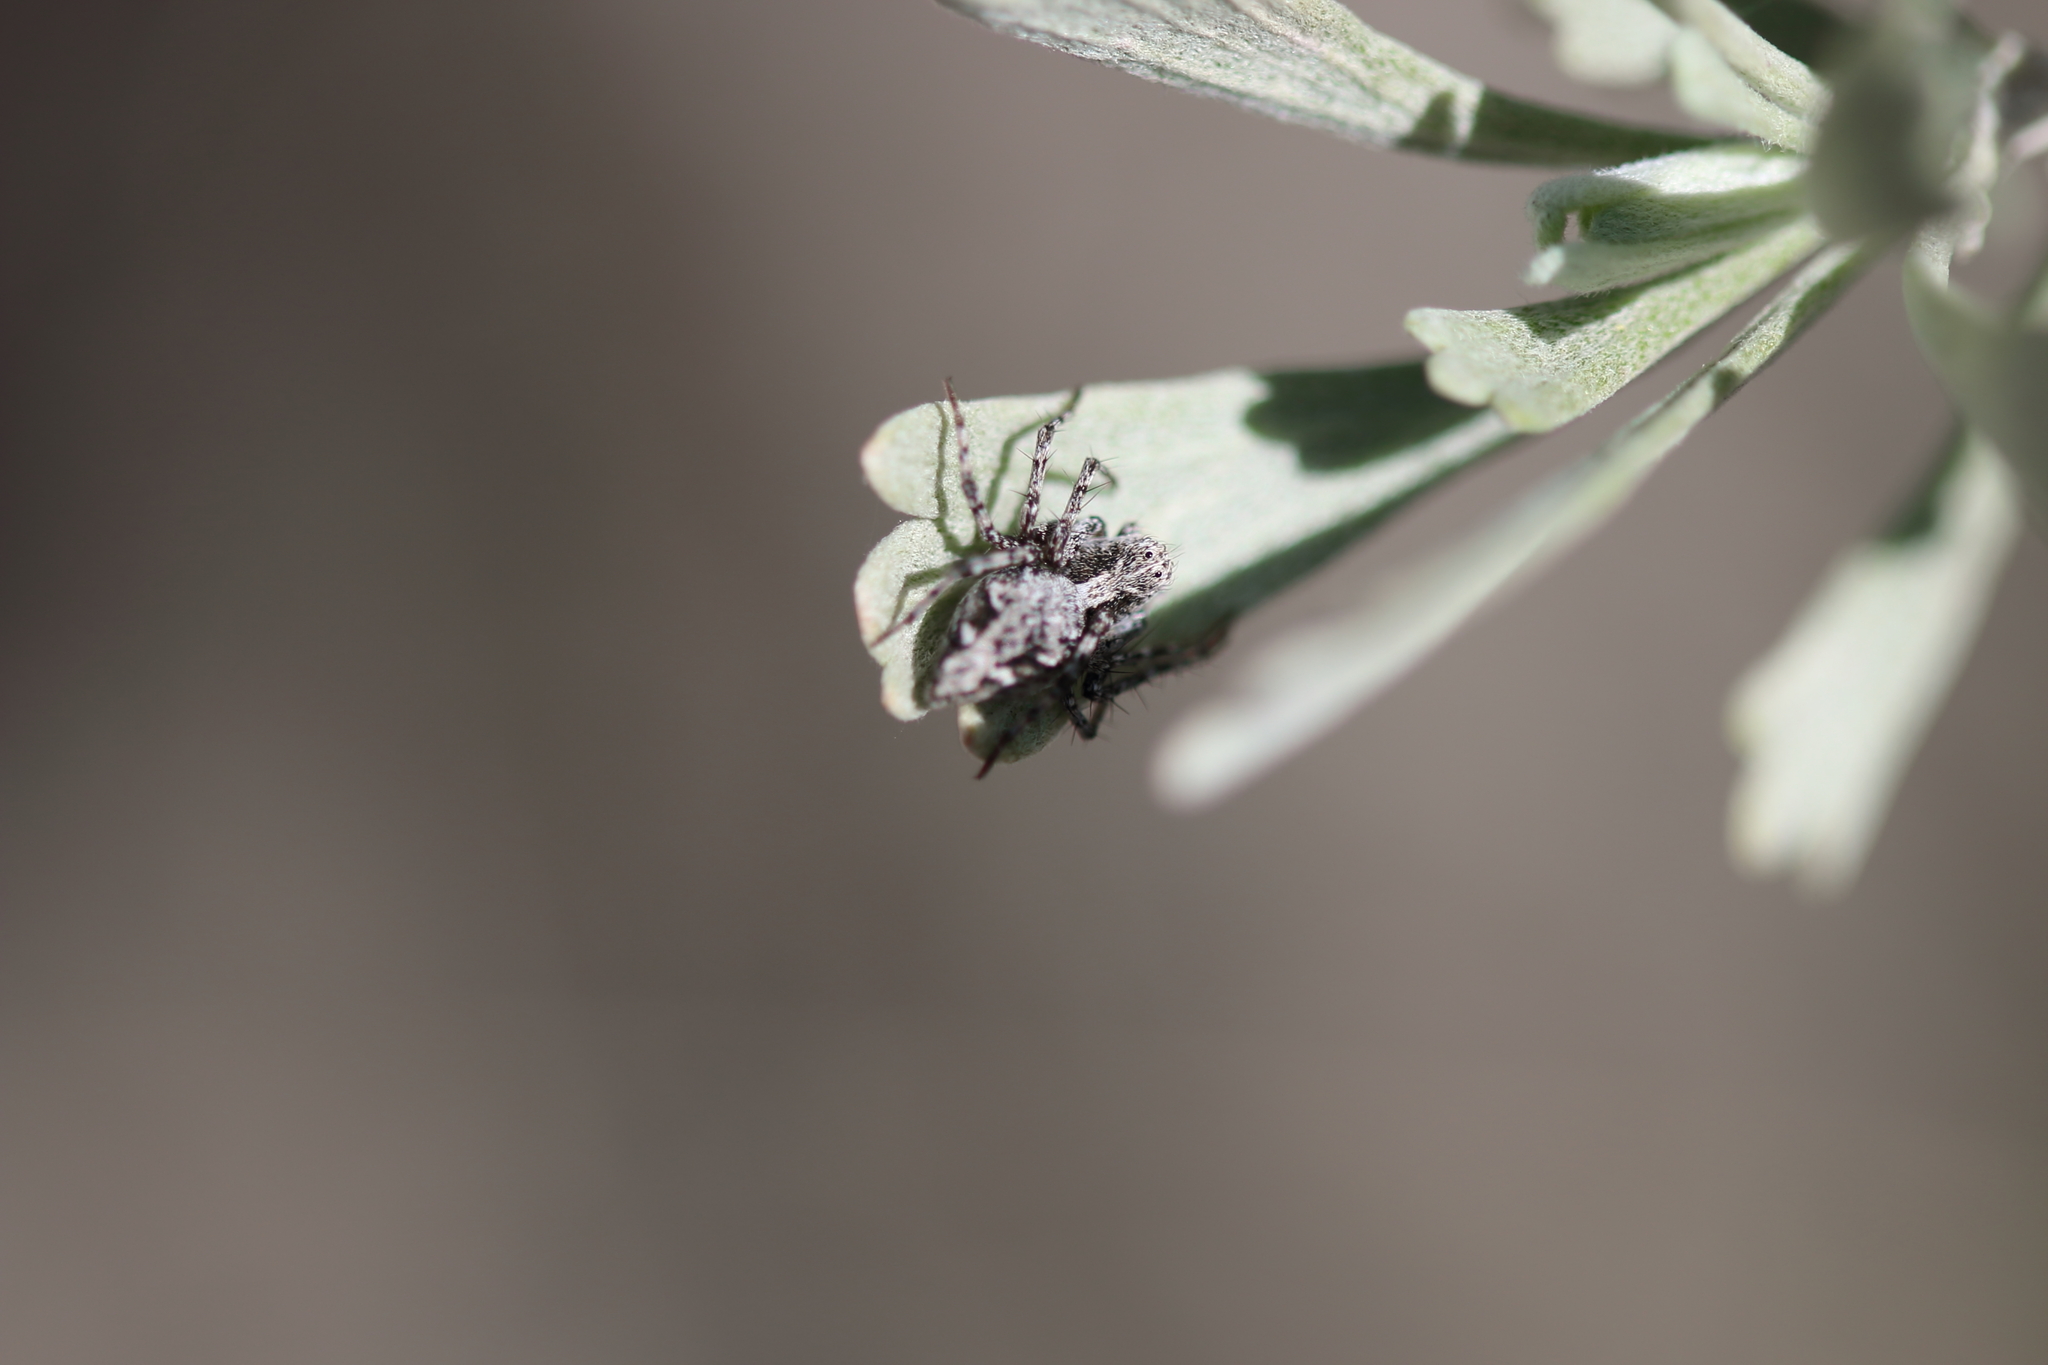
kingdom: Animalia
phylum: Arthropoda
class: Arachnida
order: Araneae
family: Oxyopidae
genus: Oxyopes
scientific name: Oxyopes scalaris
